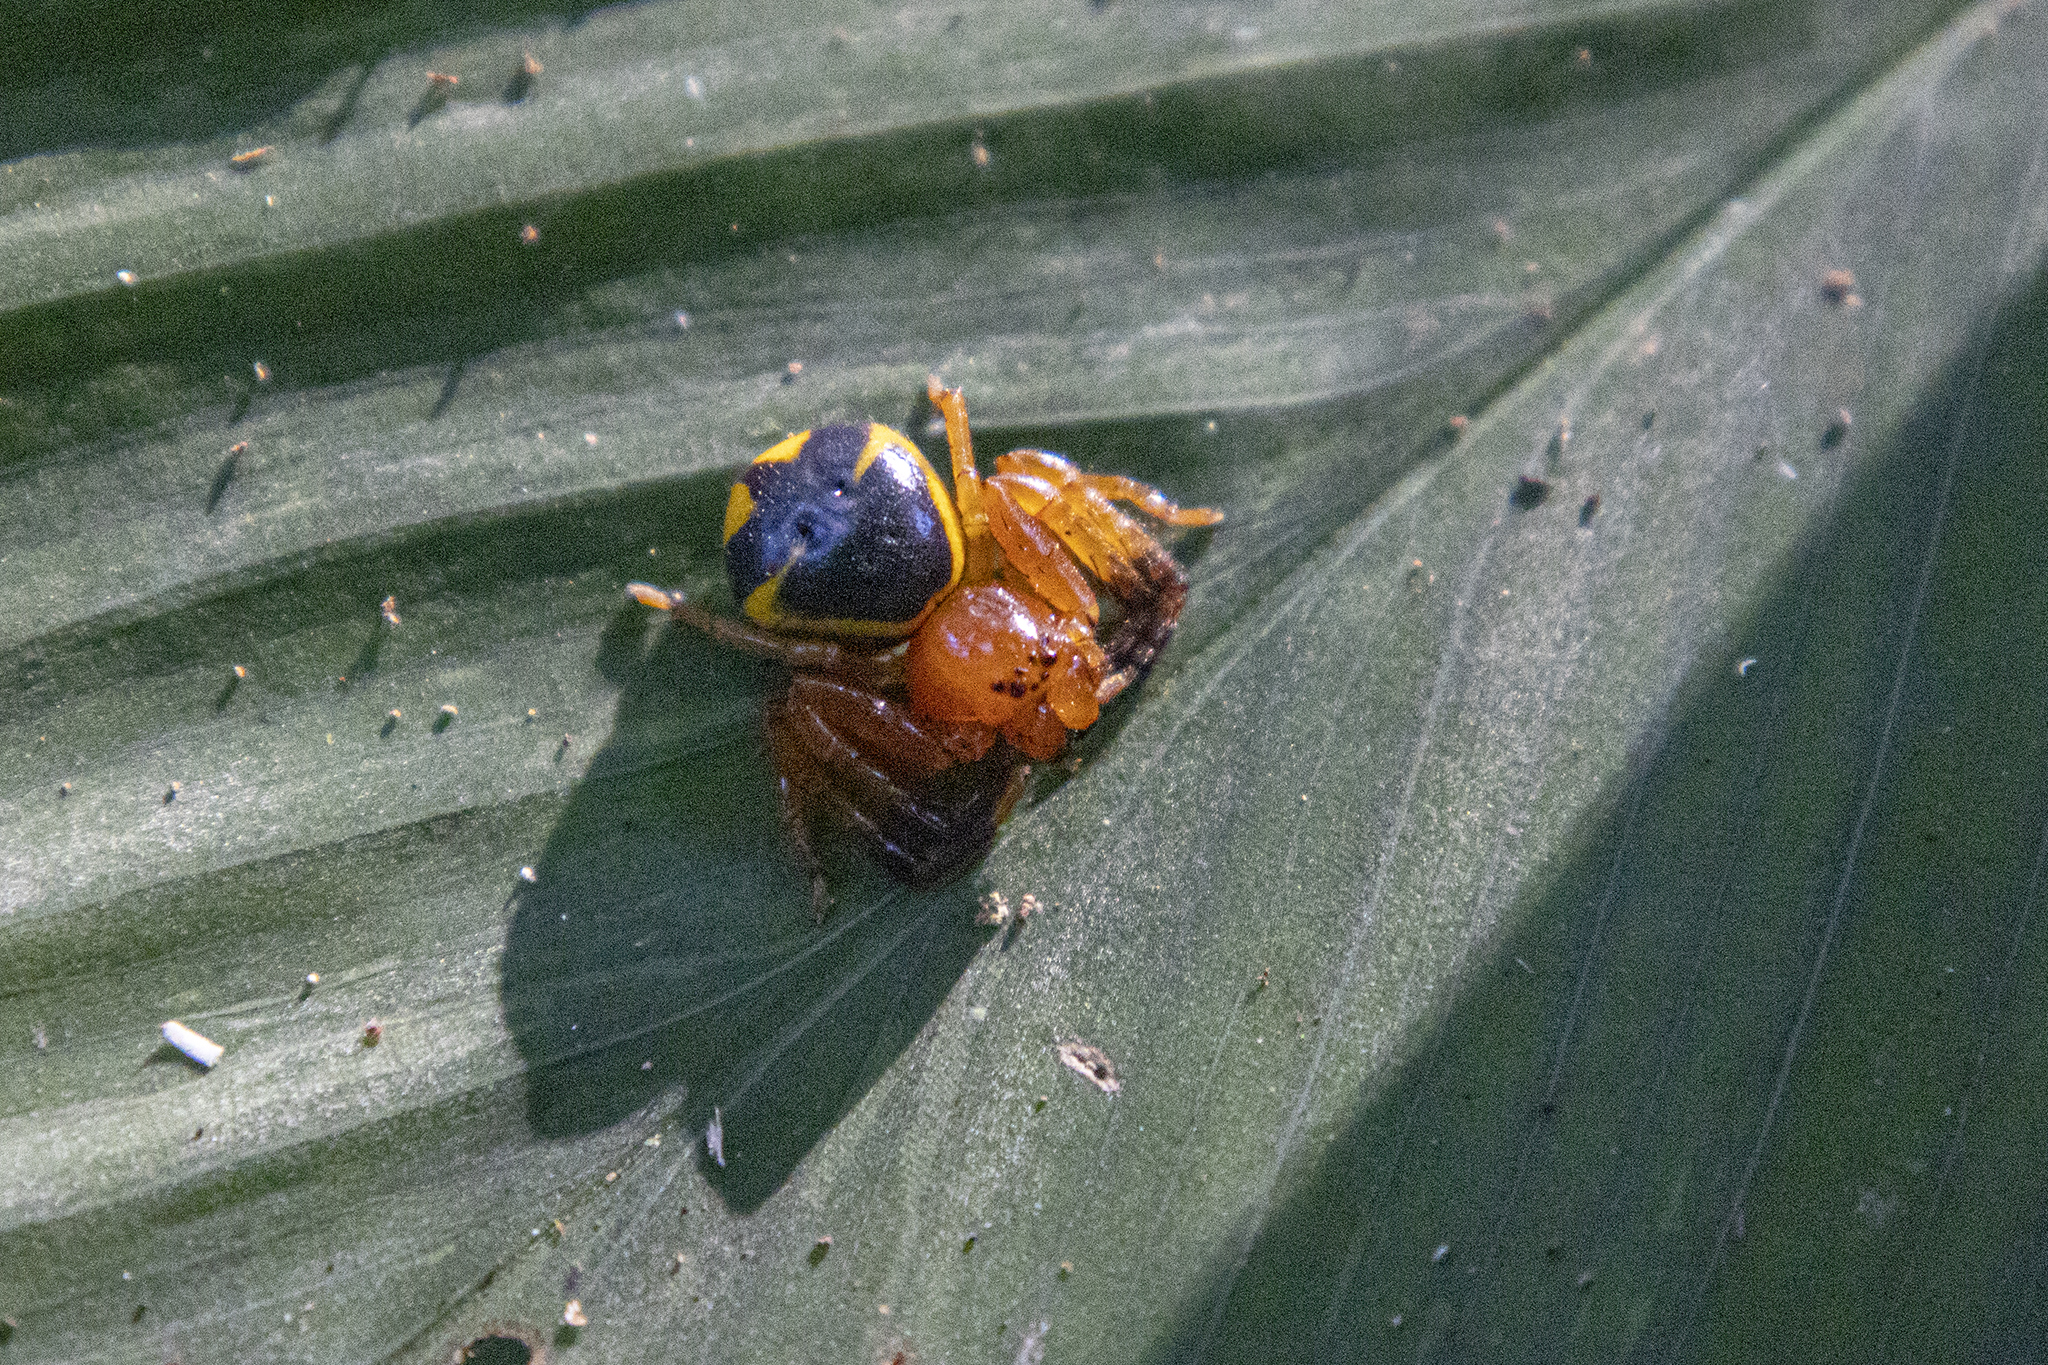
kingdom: Animalia
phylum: Arthropoda
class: Arachnida
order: Araneae
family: Thomisidae
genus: Stephanopoides
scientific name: Stephanopoides simoni
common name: Crab spiders
